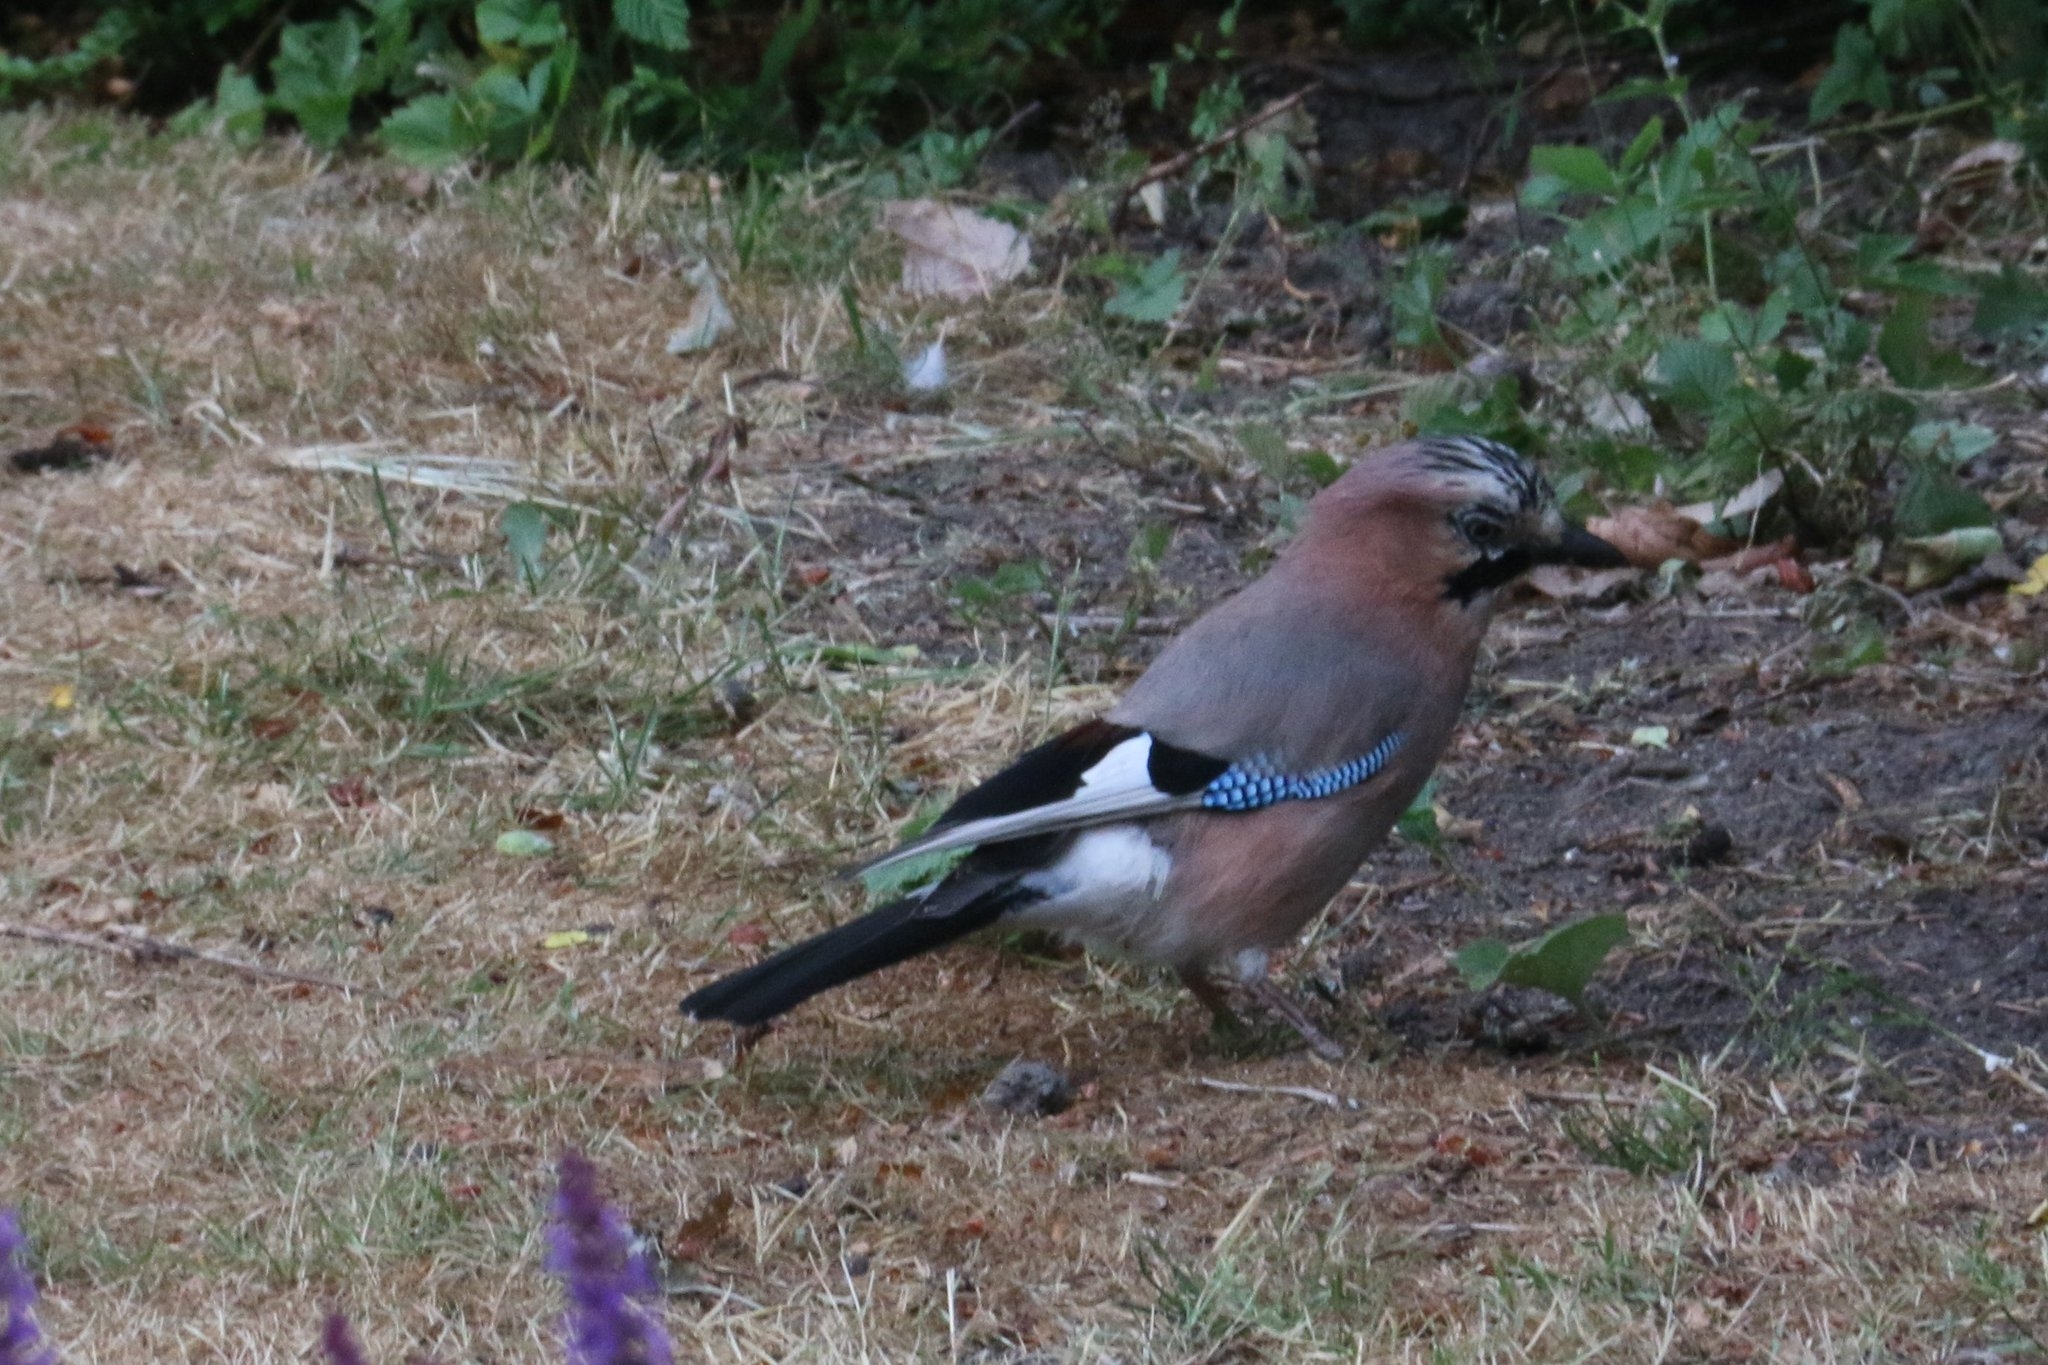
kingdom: Animalia
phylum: Chordata
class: Aves
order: Passeriformes
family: Corvidae
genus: Garrulus
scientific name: Garrulus glandarius
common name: Eurasian jay
